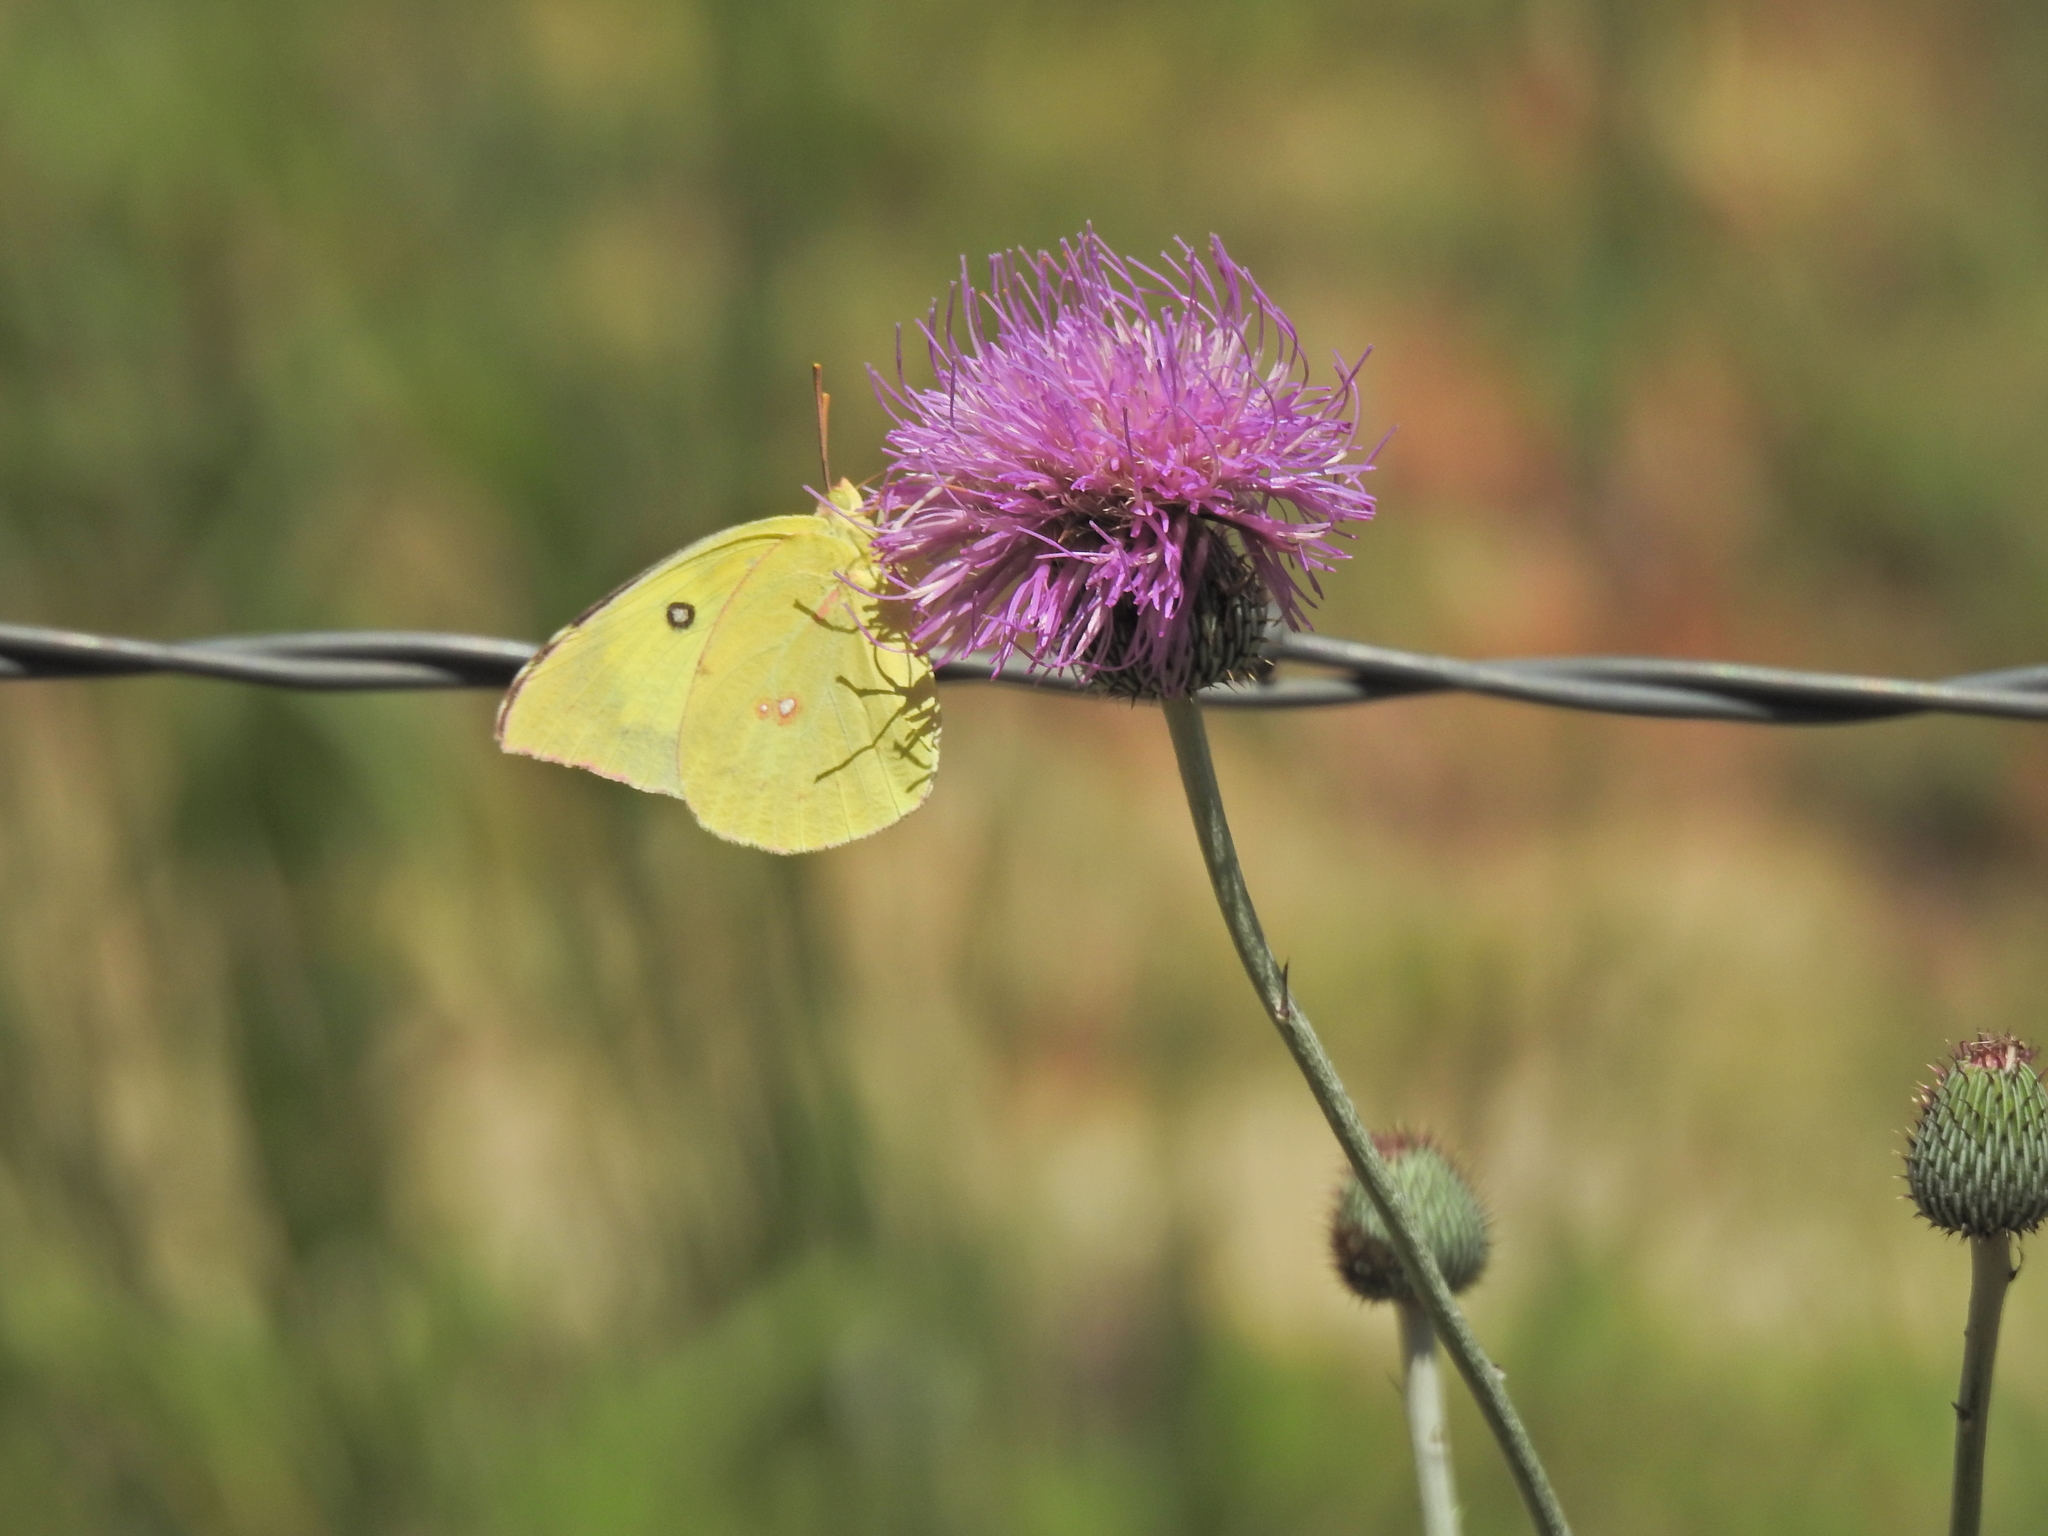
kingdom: Animalia
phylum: Arthropoda
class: Insecta
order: Lepidoptera
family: Pieridae
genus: Zerene
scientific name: Zerene cesonia
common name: Southern dogface
